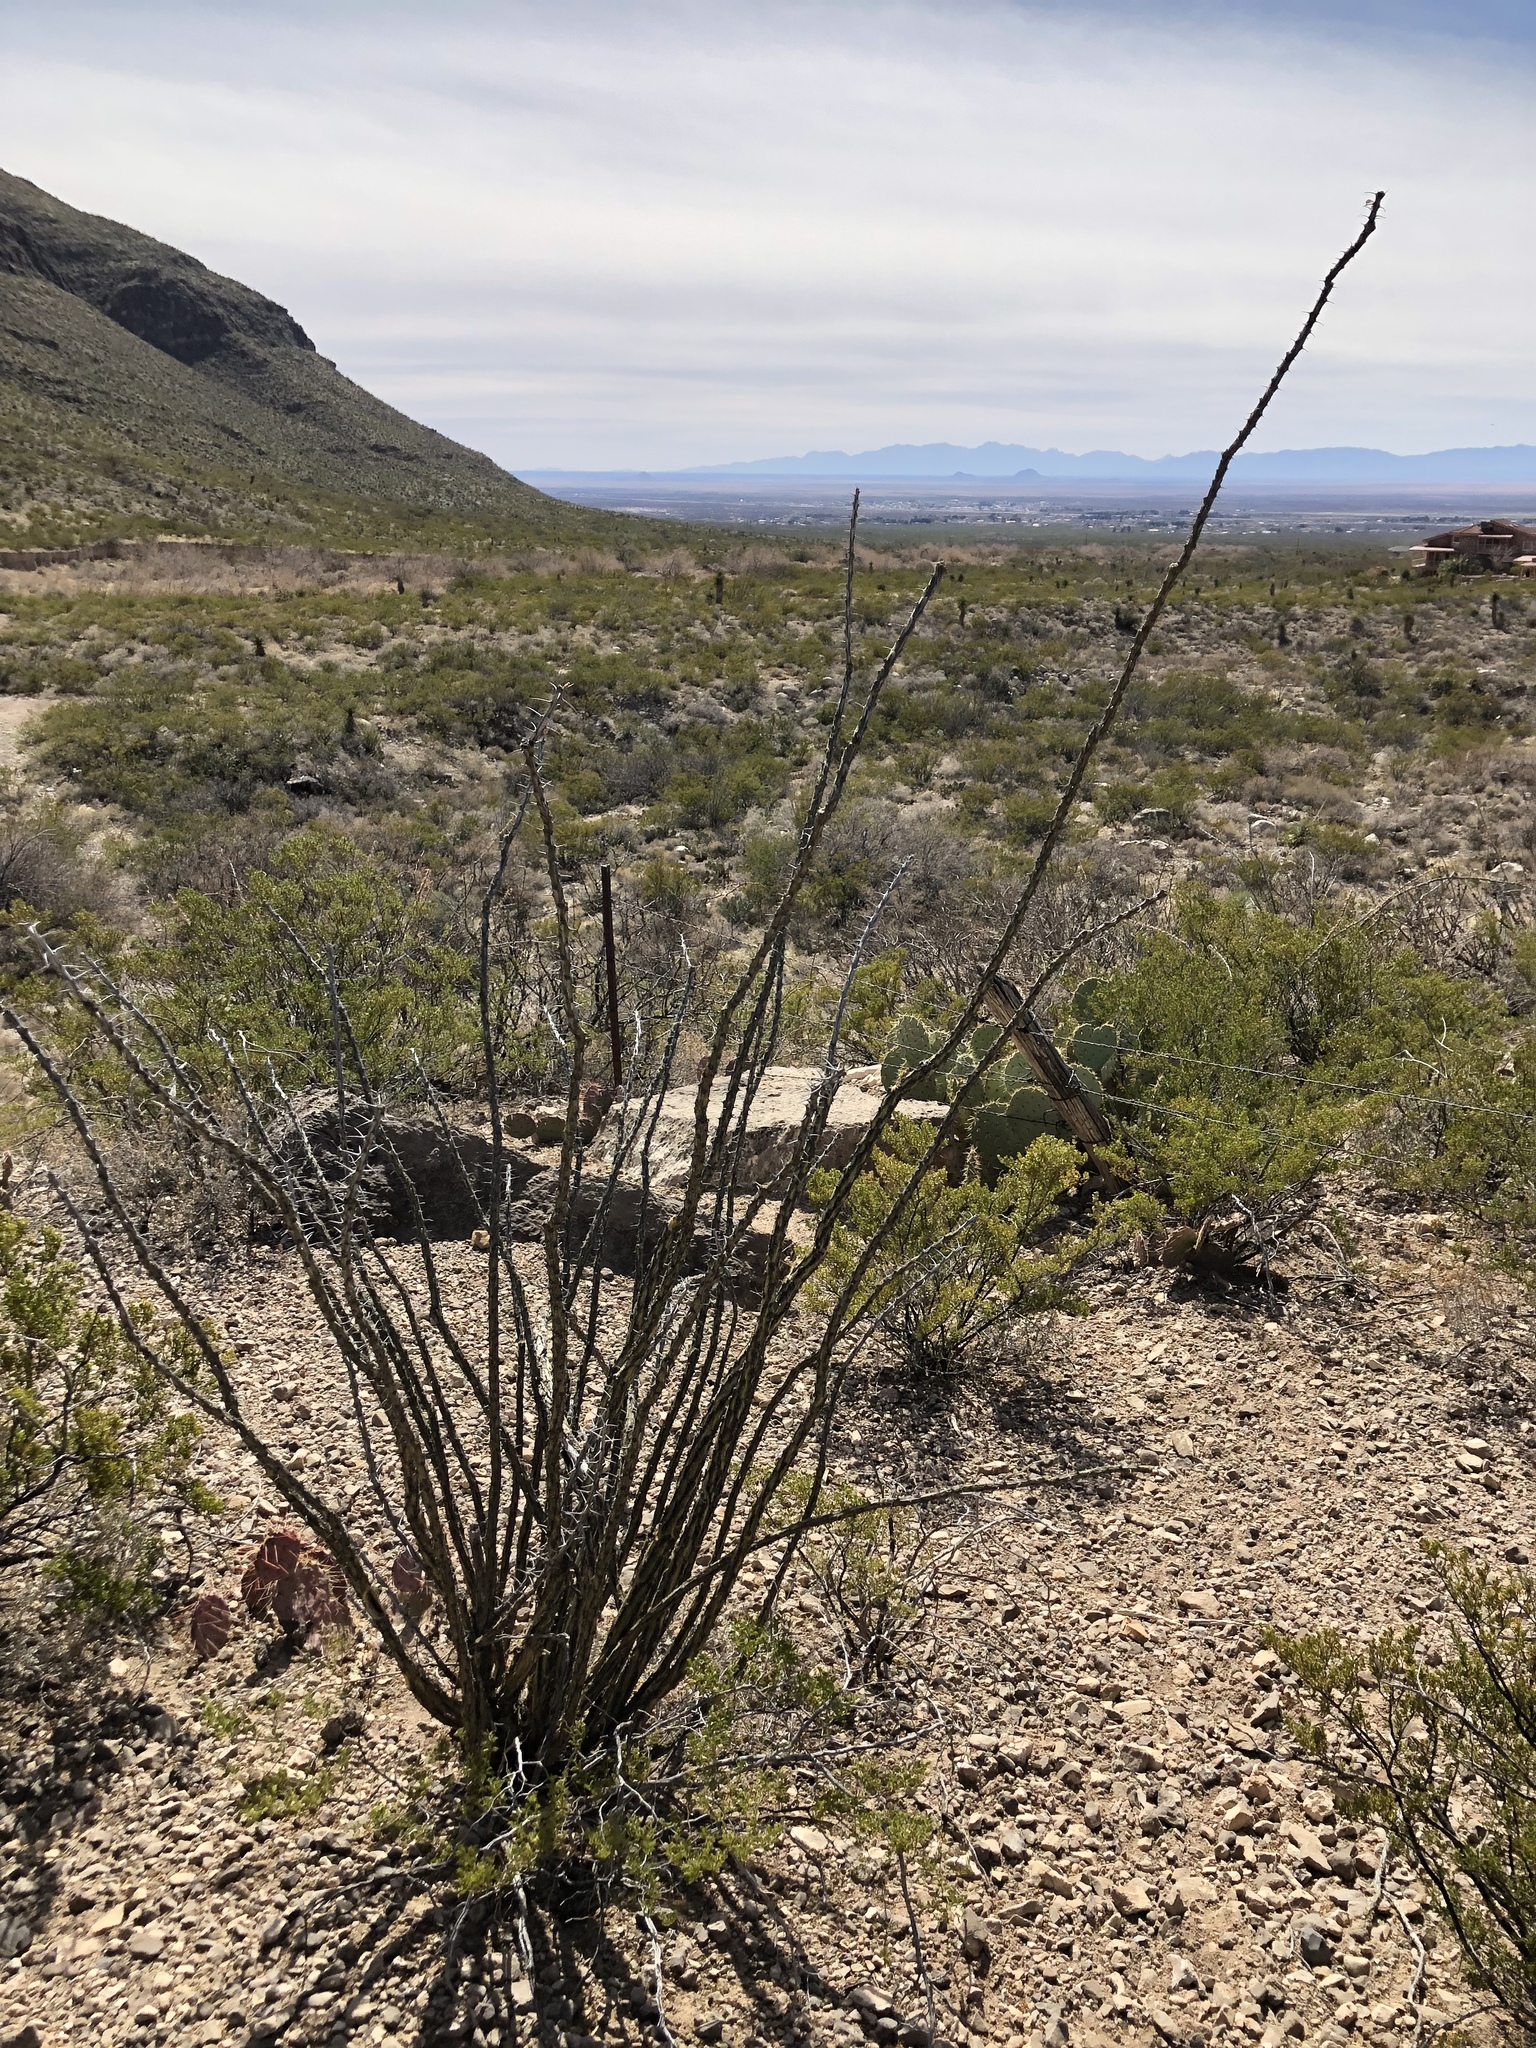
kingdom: Plantae
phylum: Tracheophyta
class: Magnoliopsida
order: Ericales
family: Fouquieriaceae
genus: Fouquieria
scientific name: Fouquieria splendens
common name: Vine-cactus
